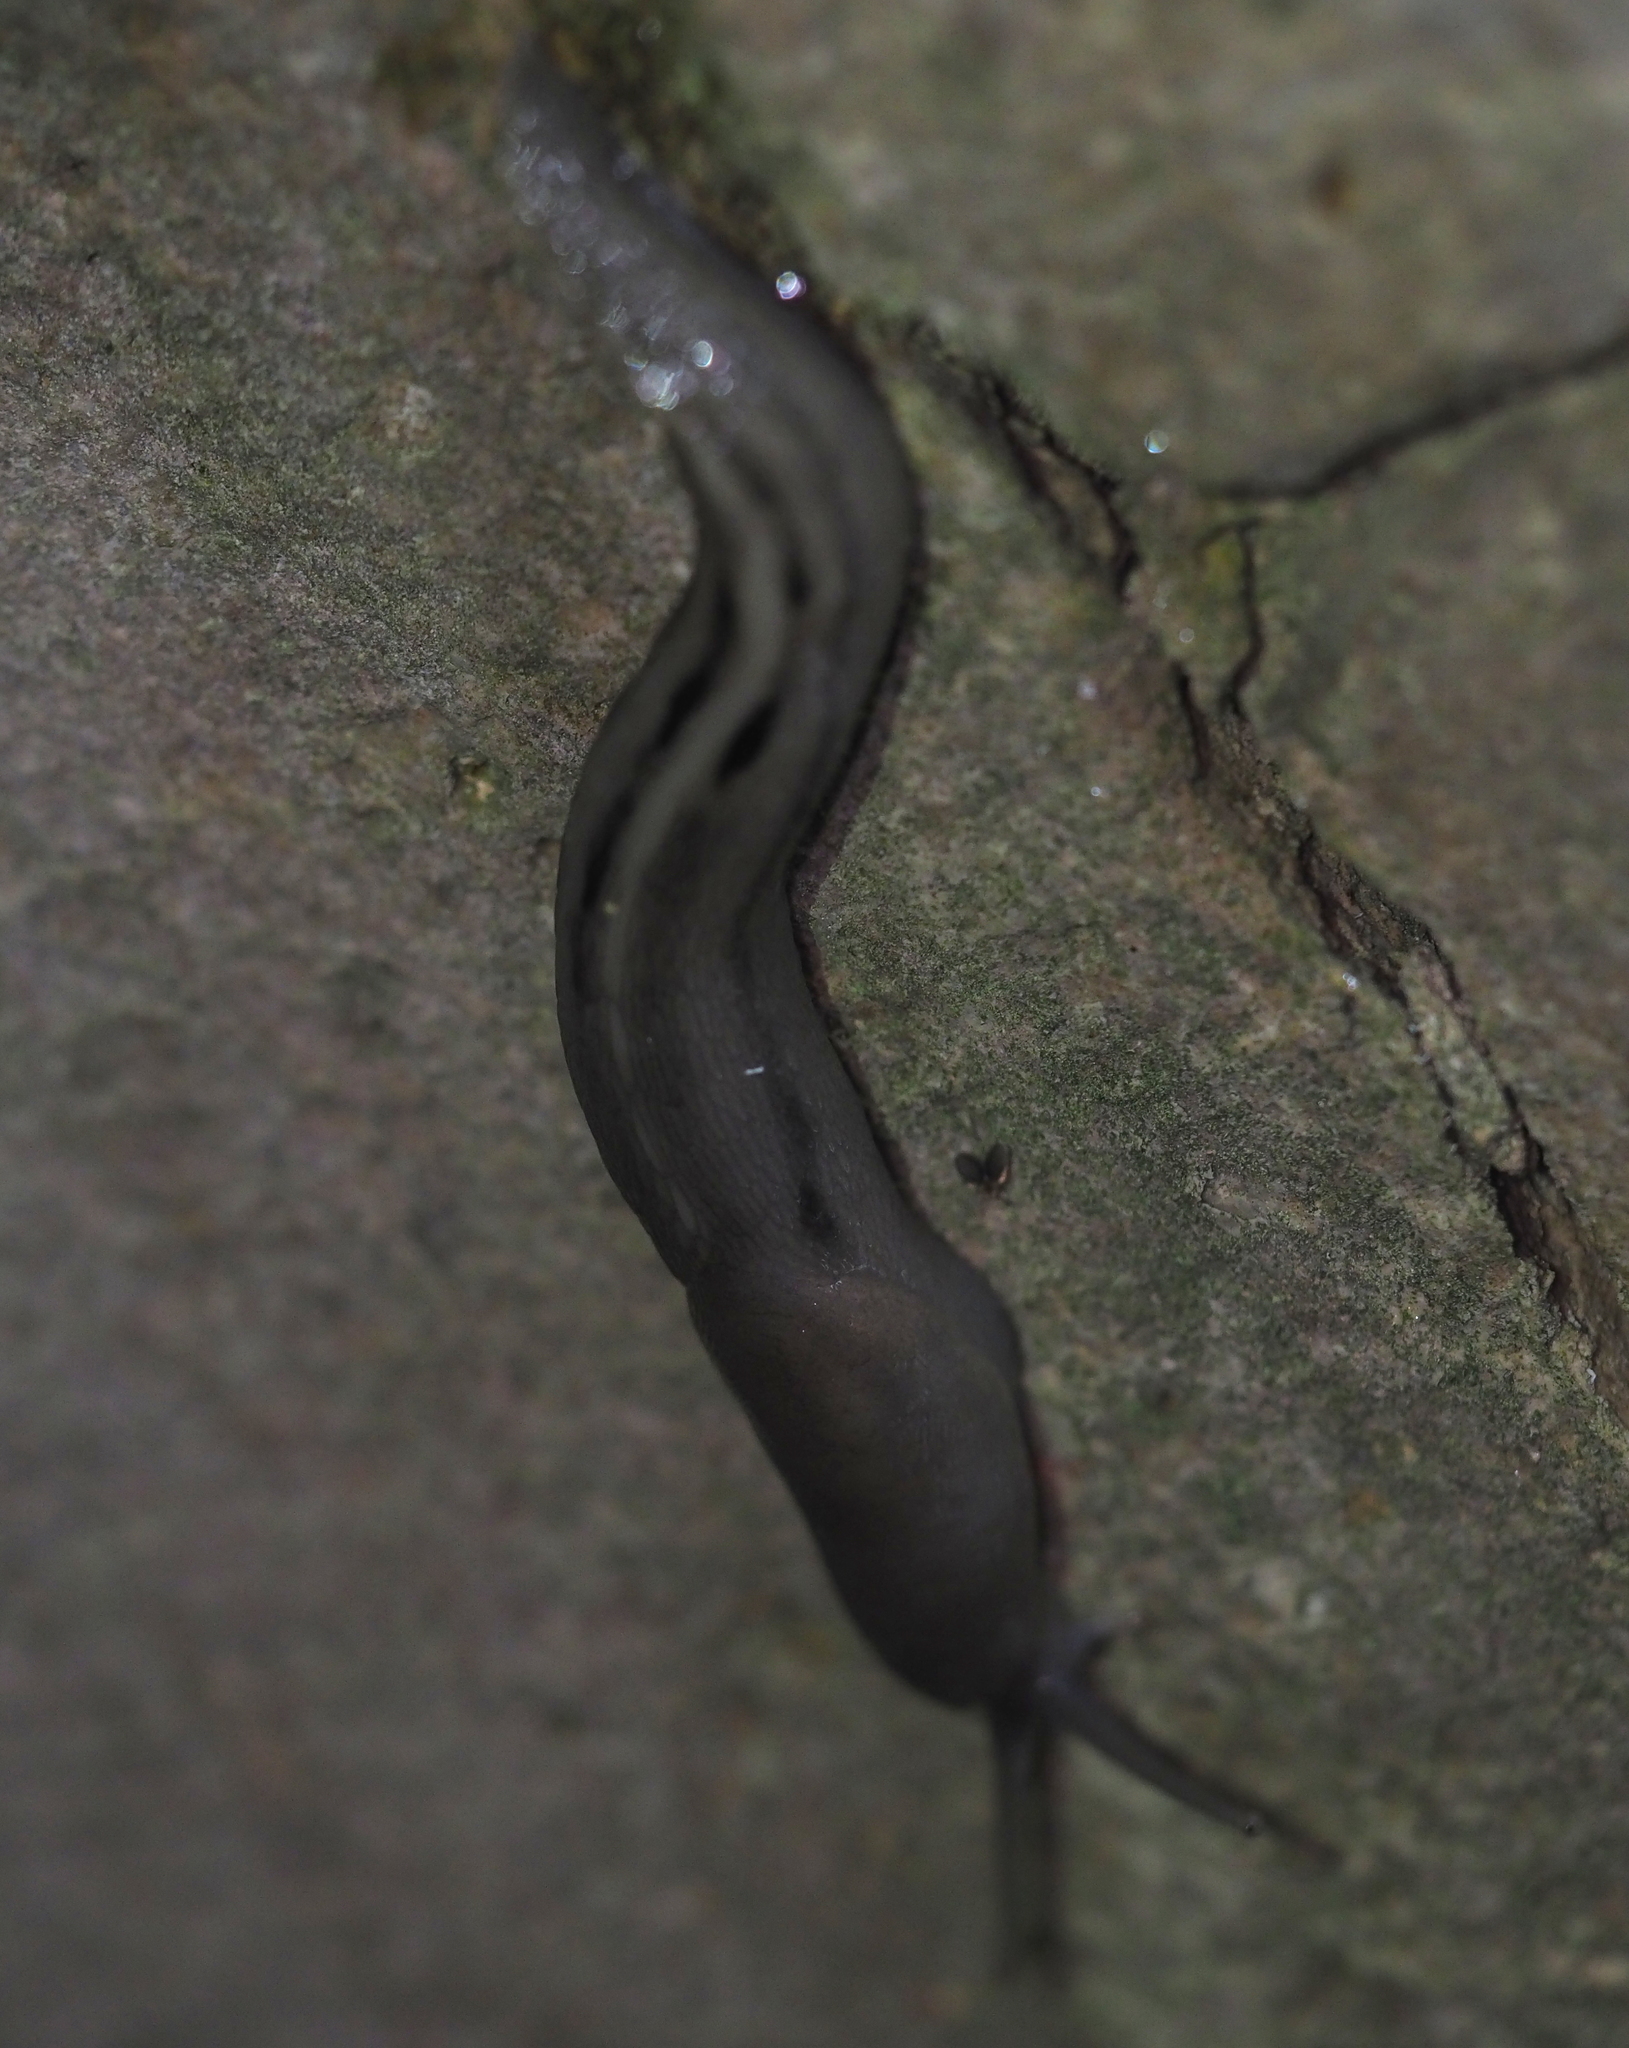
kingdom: Animalia
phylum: Mollusca
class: Gastropoda
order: Stylommatophora
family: Limacidae
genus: Limax
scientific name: Limax cinereoniger
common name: Ash-black slug
